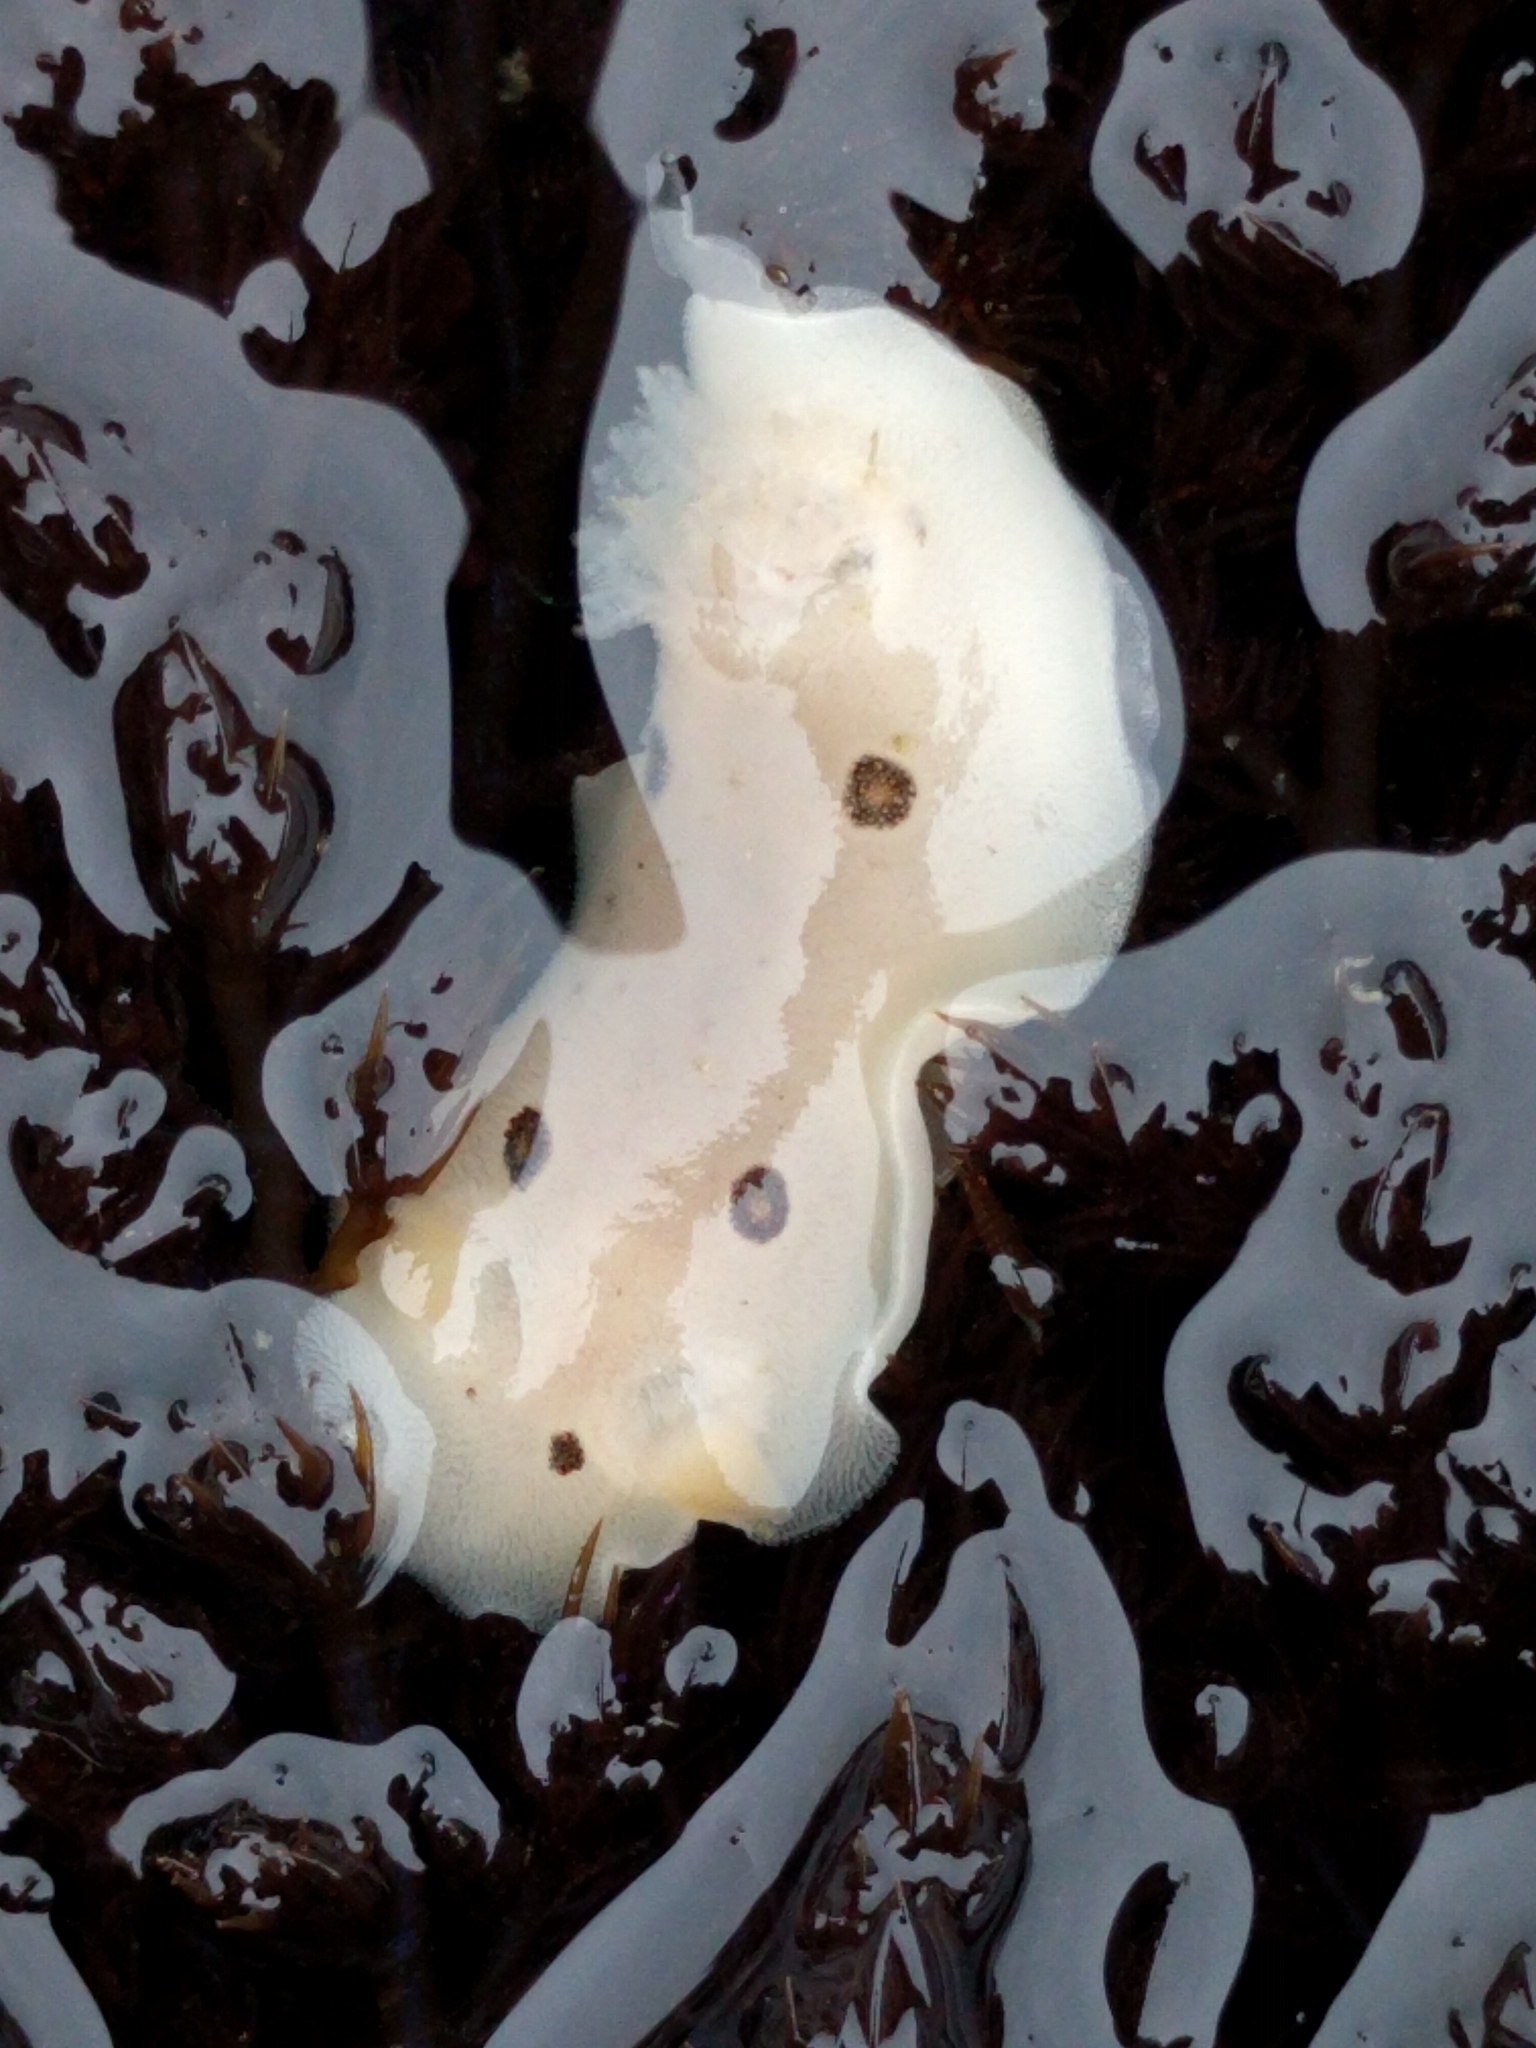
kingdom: Animalia
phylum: Mollusca
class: Gastropoda
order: Nudibranchia
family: Discodorididae
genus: Diaulula
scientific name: Diaulula sandiegensis
